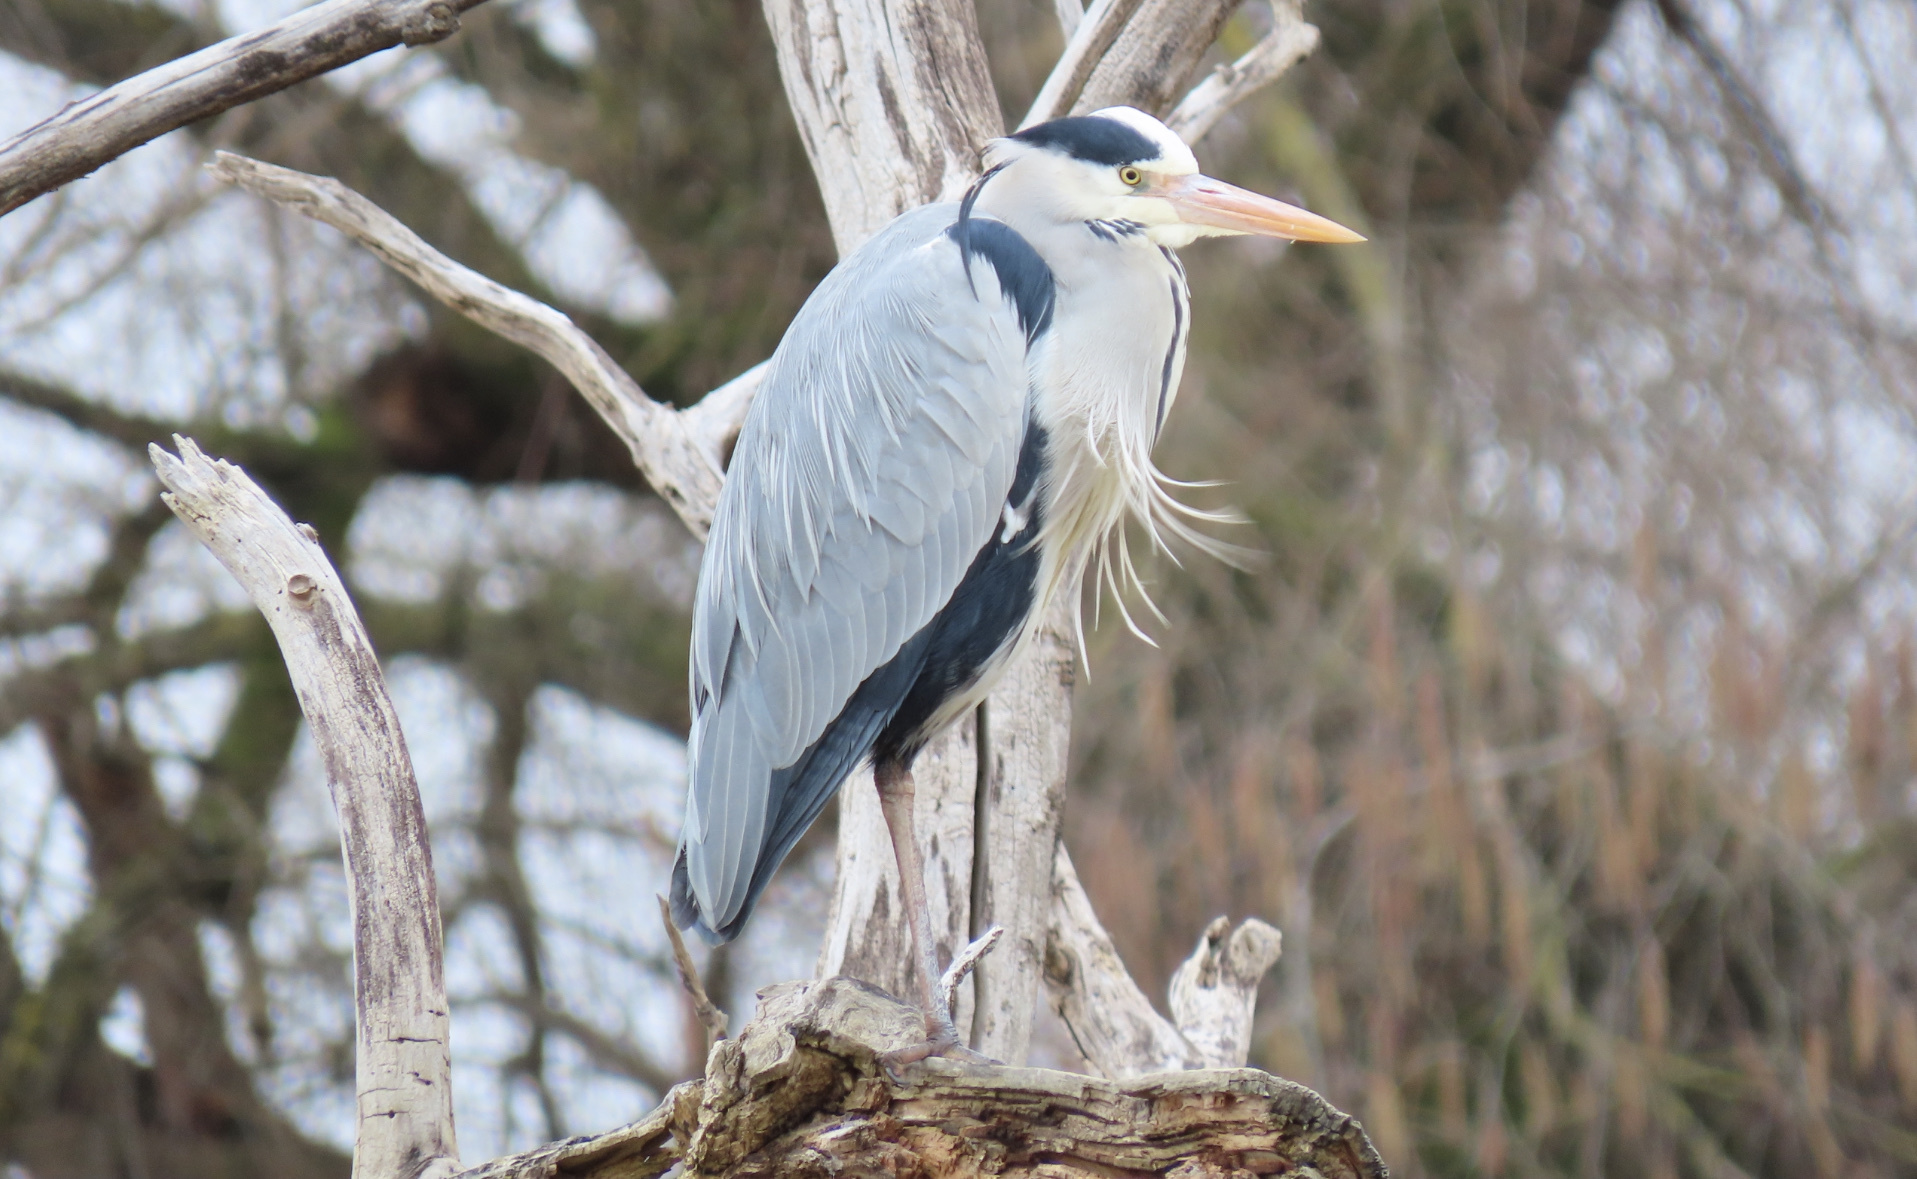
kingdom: Animalia
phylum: Chordata
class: Aves
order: Pelecaniformes
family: Ardeidae
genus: Ardea
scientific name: Ardea cinerea
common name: Grey heron
